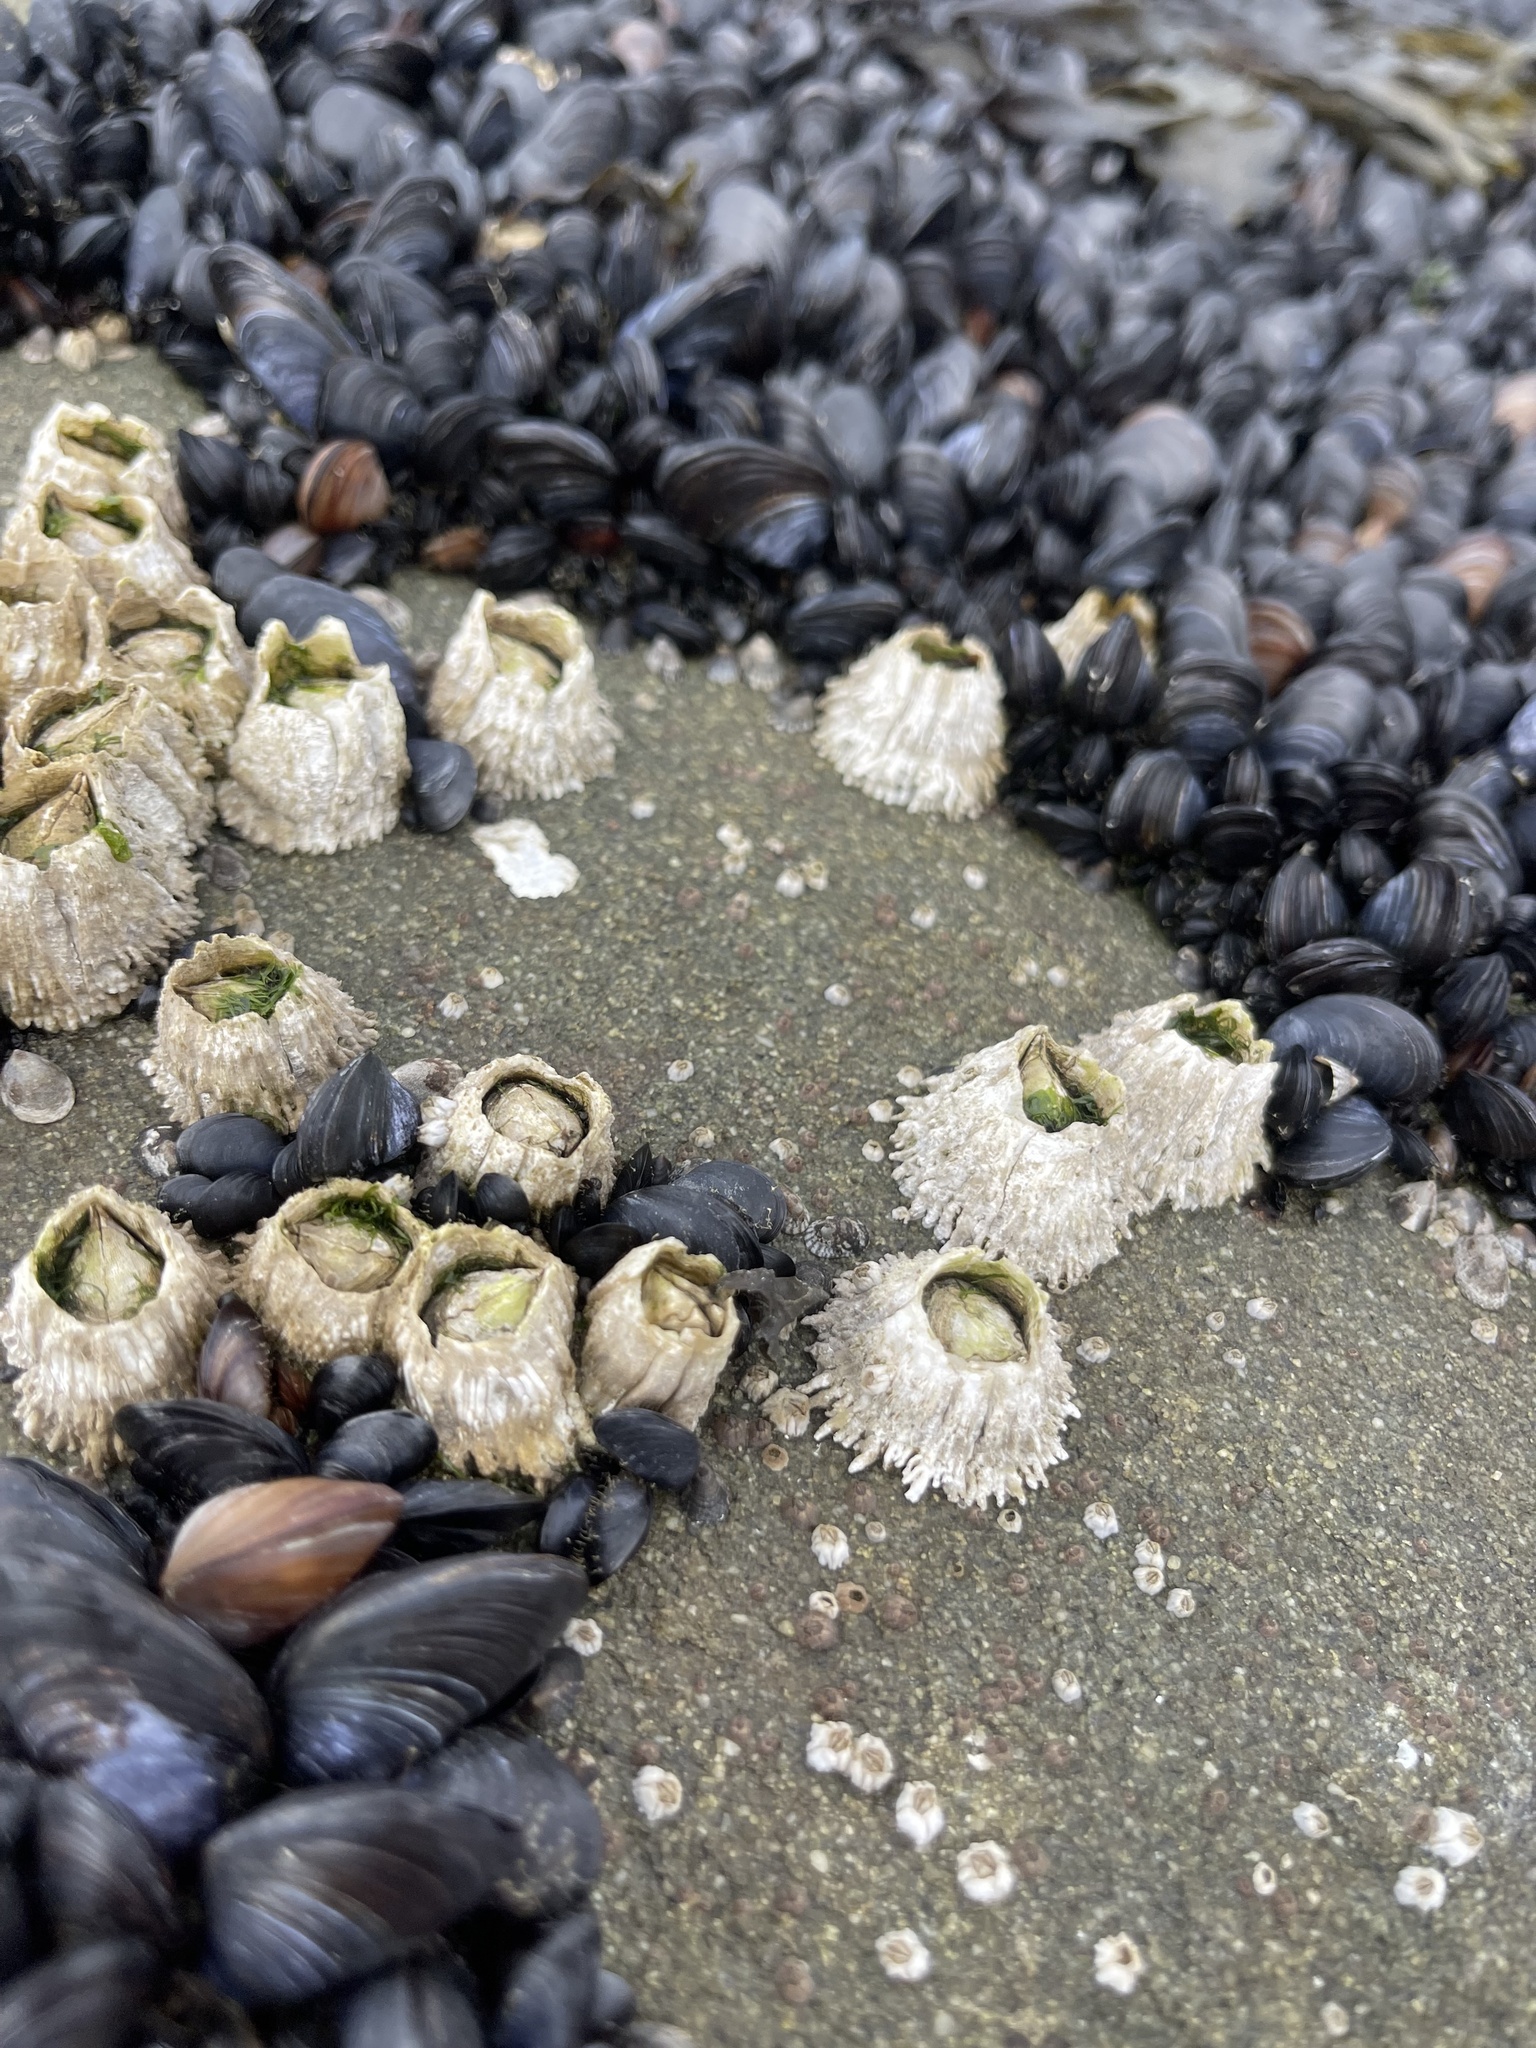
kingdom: Animalia
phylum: Arthropoda
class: Maxillopoda
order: Sessilia
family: Archaeobalanidae
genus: Semibalanus
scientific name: Semibalanus cariosus
